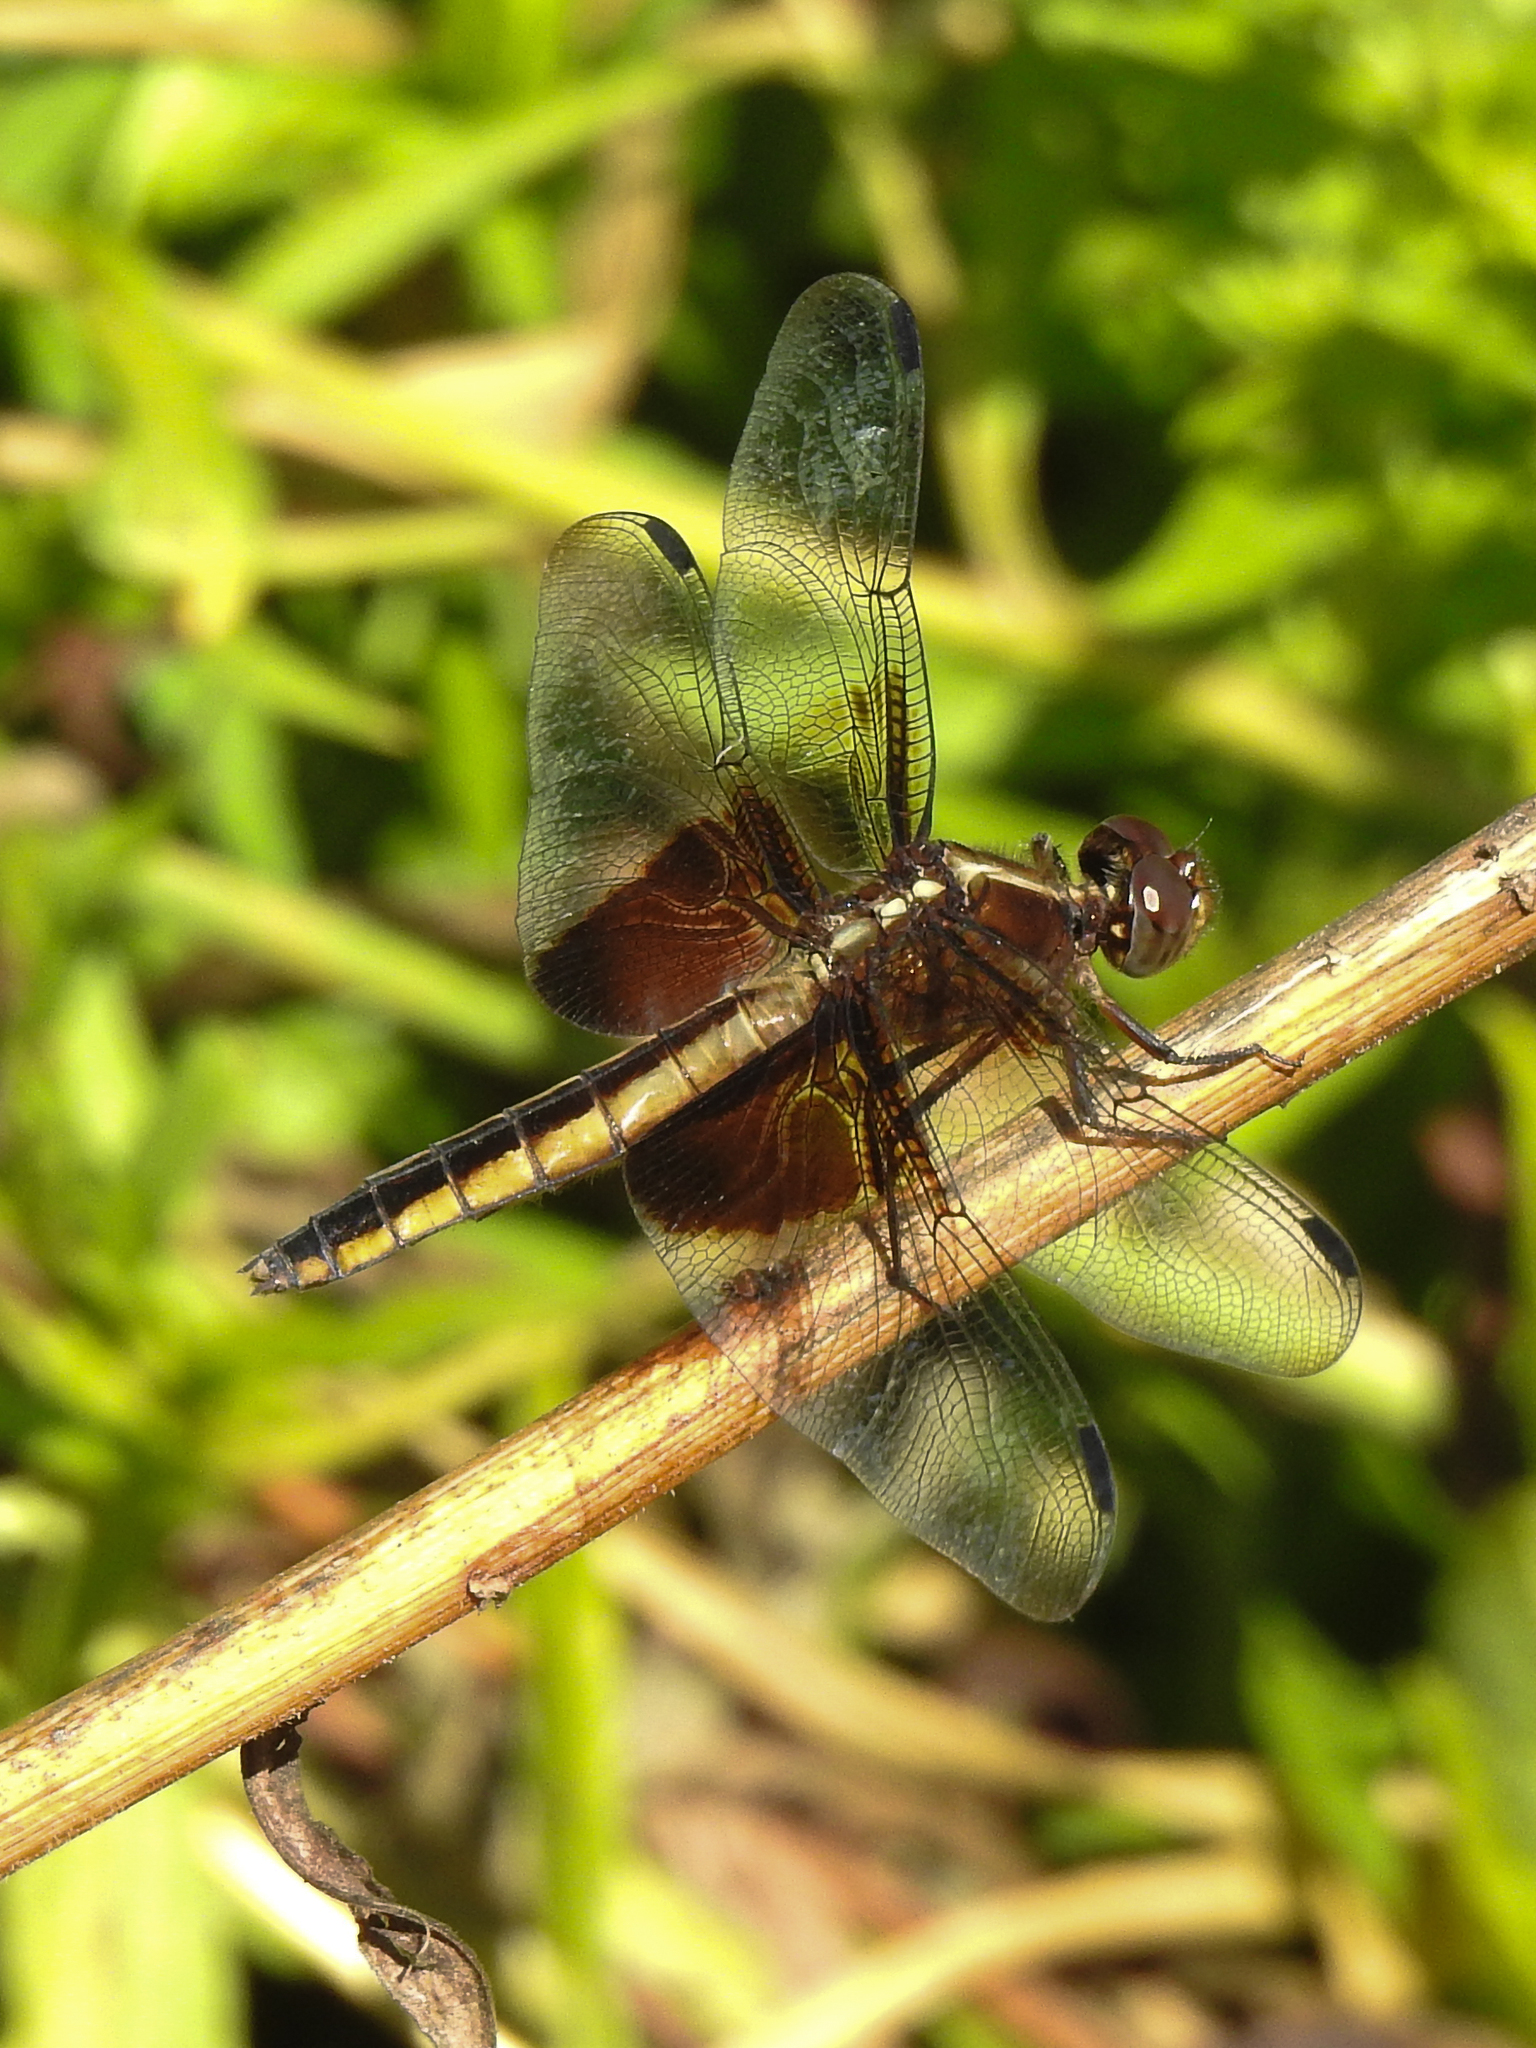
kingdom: Animalia
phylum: Arthropoda
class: Insecta
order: Odonata
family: Libellulidae
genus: Libellula
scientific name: Libellula luctuosa
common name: Widow skimmer
